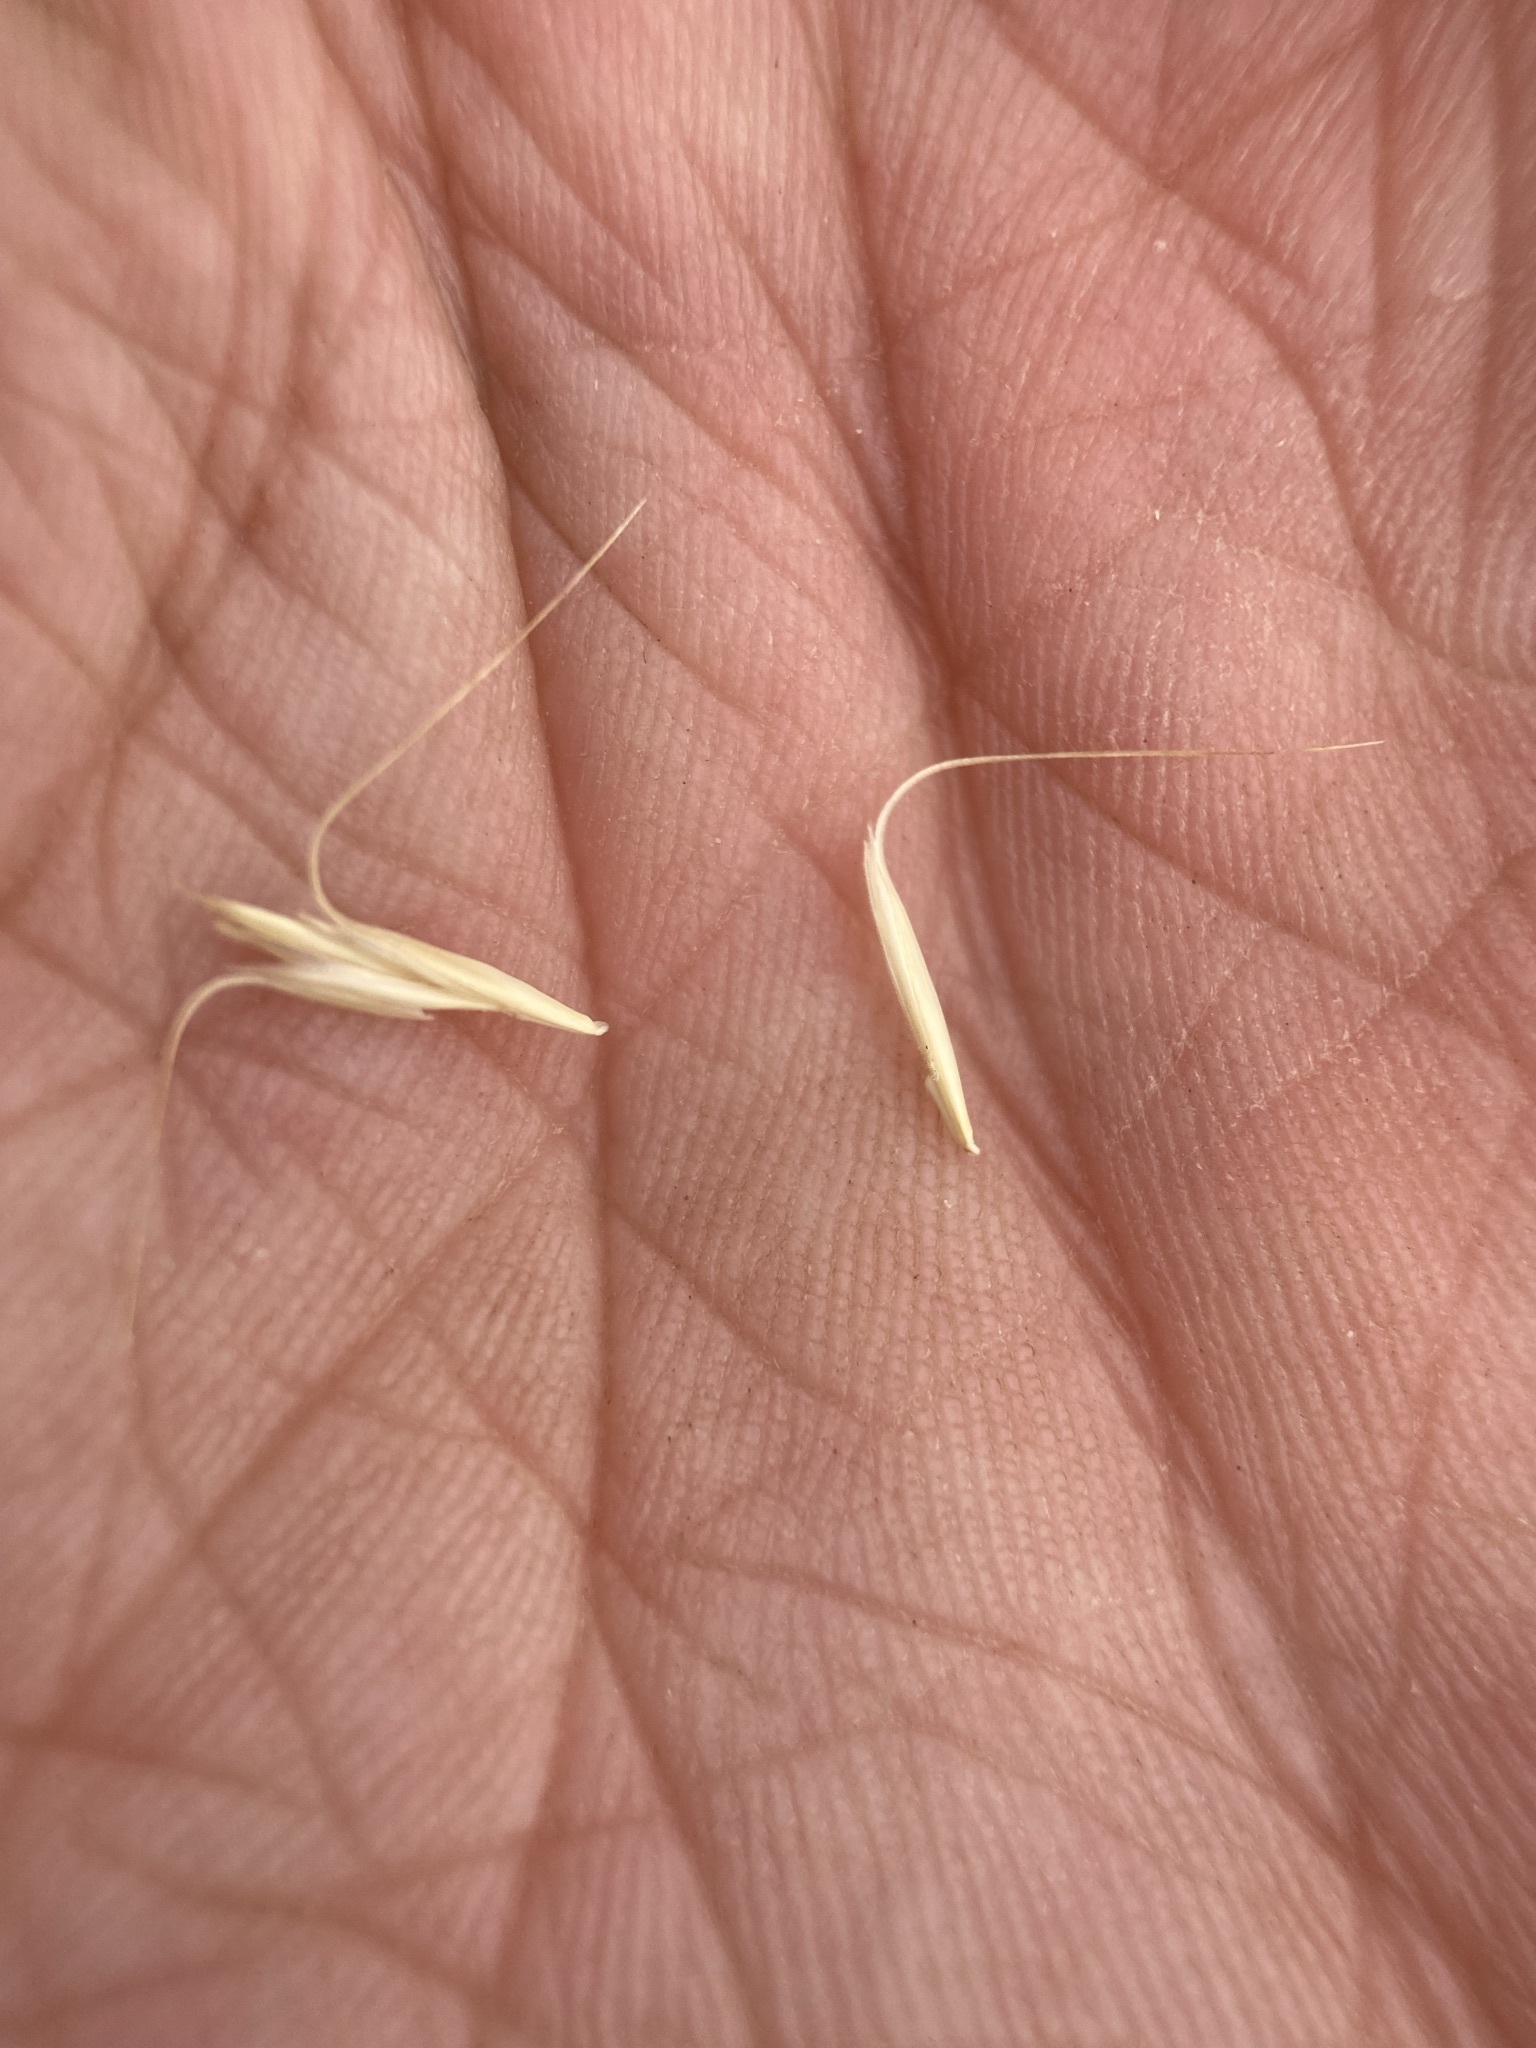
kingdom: Plantae
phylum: Tracheophyta
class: Liliopsida
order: Poales
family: Poaceae
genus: Pseudoroegneria
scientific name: Pseudoroegneria spicata
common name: Bluebunch wheatgrass
